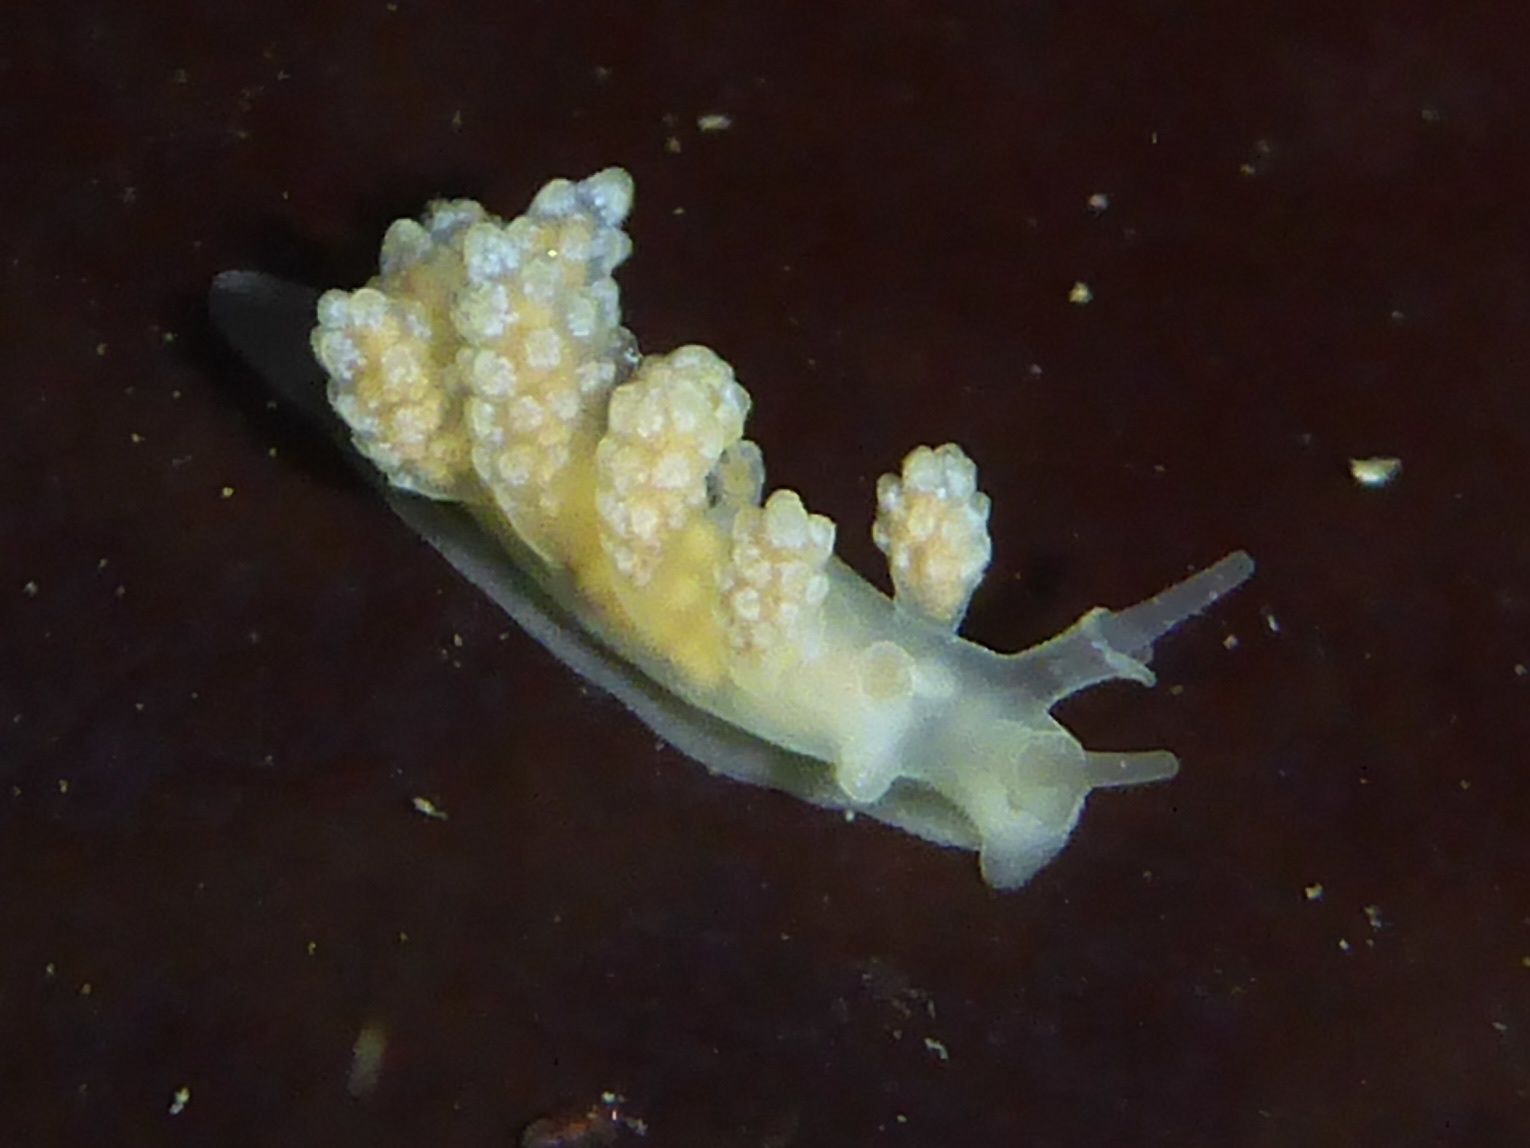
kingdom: Animalia
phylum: Mollusca
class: Gastropoda
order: Nudibranchia
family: Dotidae
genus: Doto
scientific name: Doto amyra
